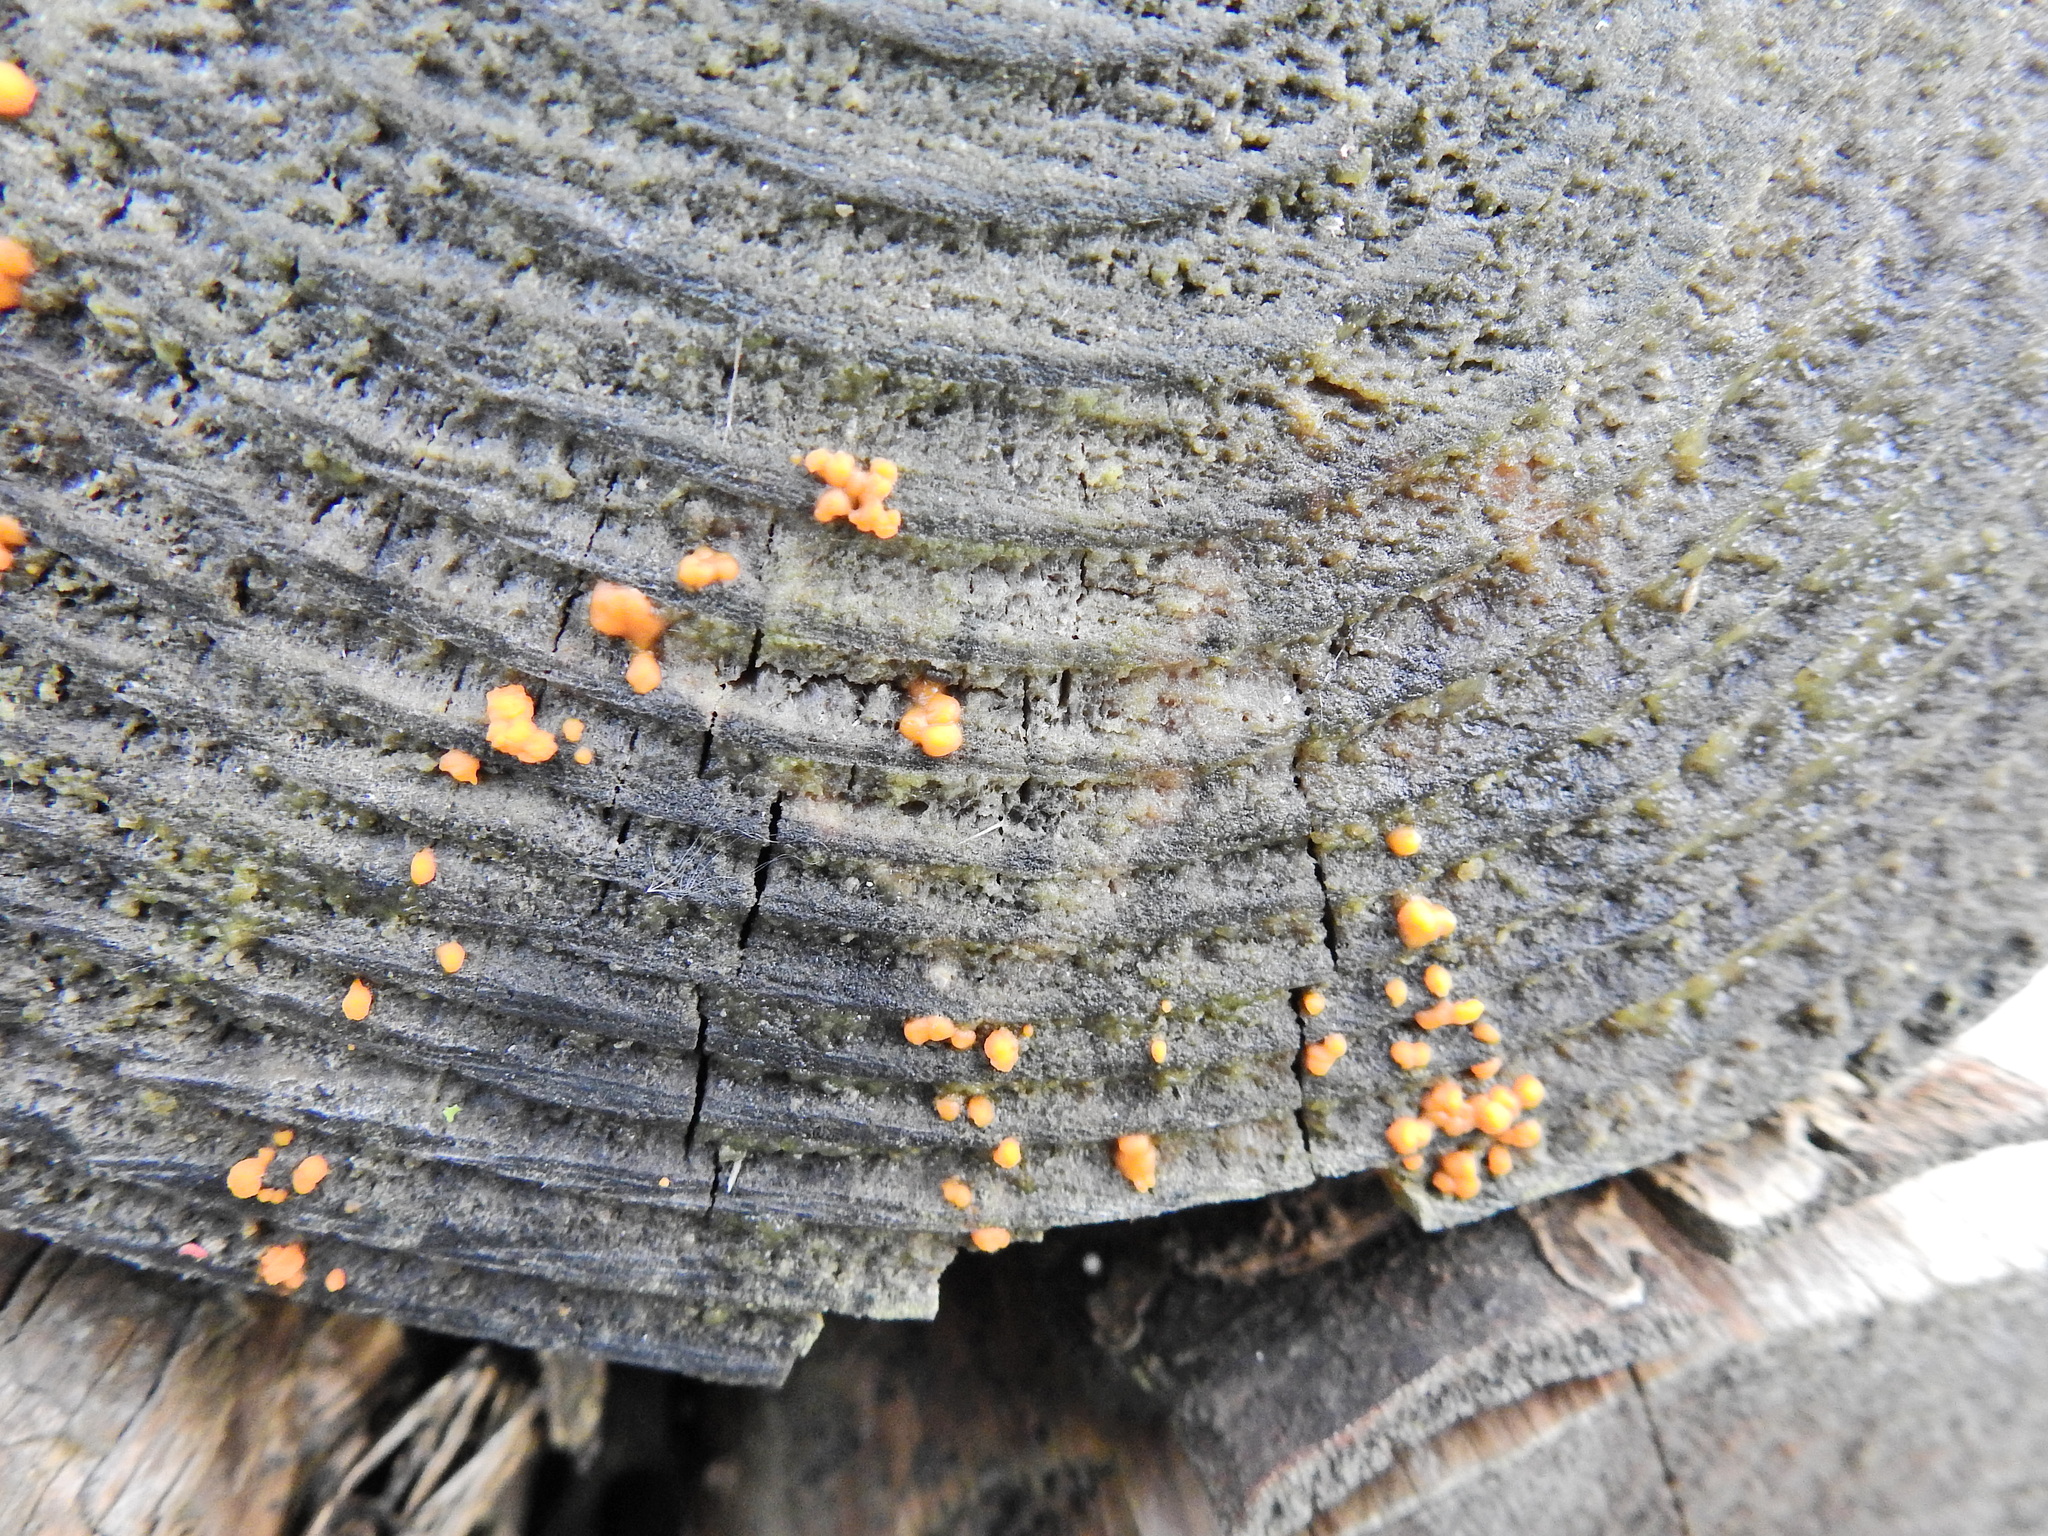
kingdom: Fungi
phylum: Basidiomycota
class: Dacrymycetes
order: Dacrymycetales
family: Dacrymycetaceae
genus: Dacrymyces
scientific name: Dacrymyces stillatus
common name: Common jelly spot
